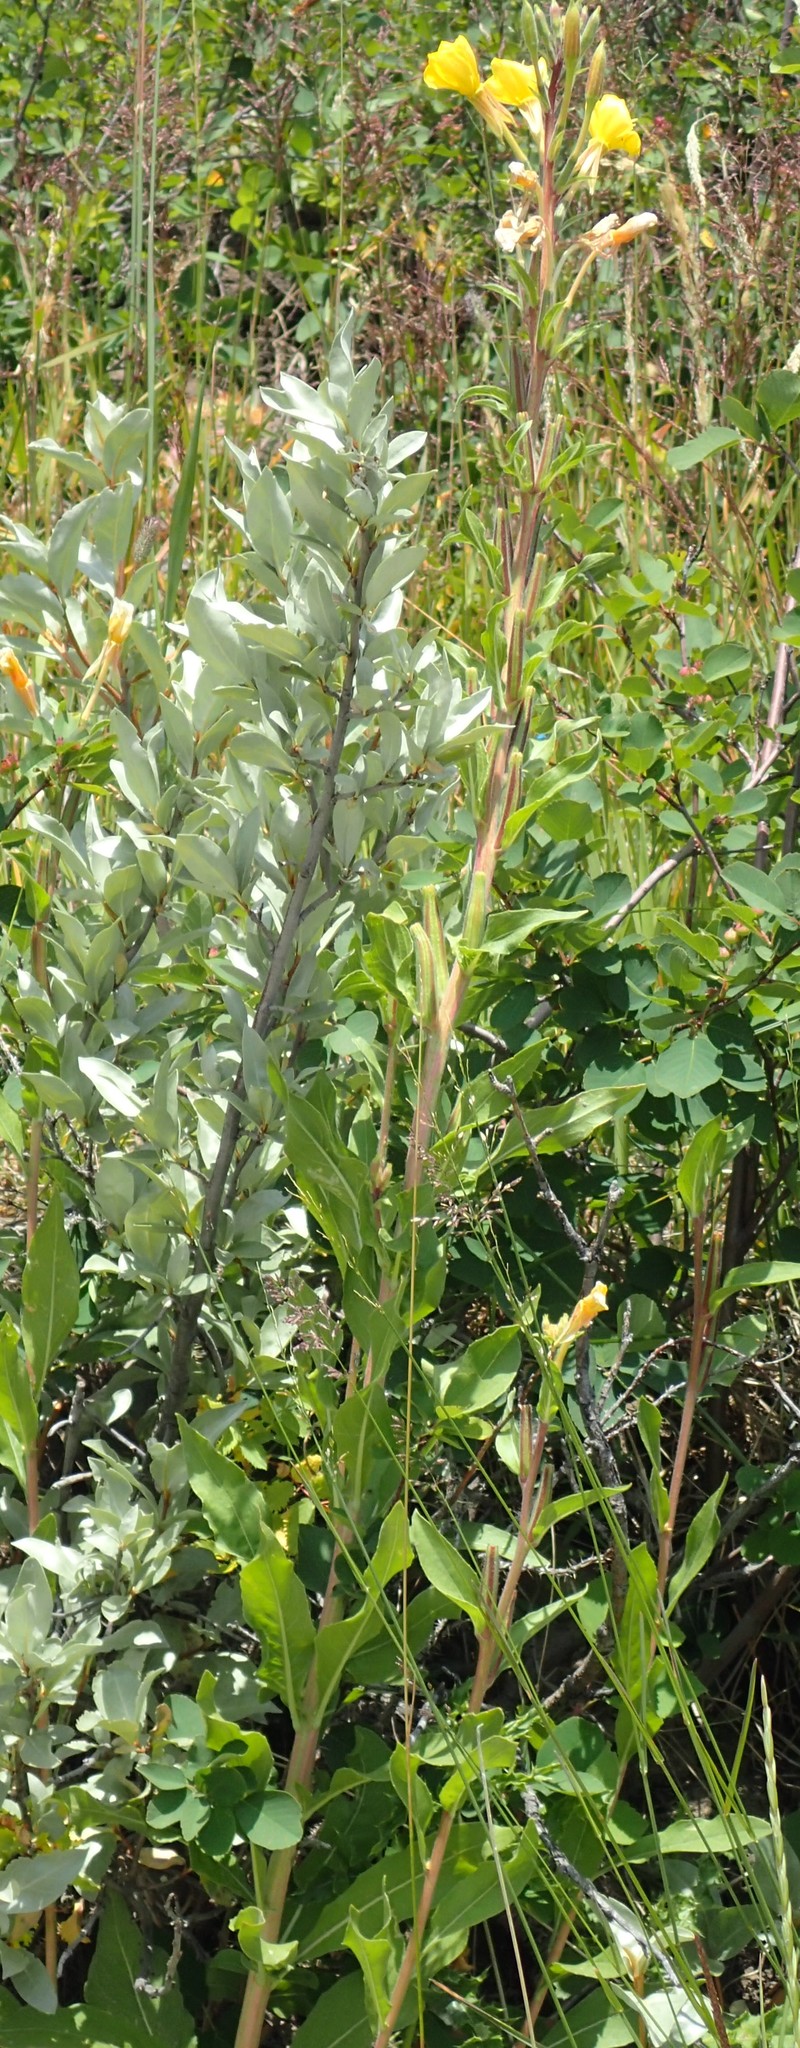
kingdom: Plantae
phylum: Tracheophyta
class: Magnoliopsida
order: Myrtales
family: Onagraceae
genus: Oenothera
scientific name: Oenothera biennis
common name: Common evening-primrose
